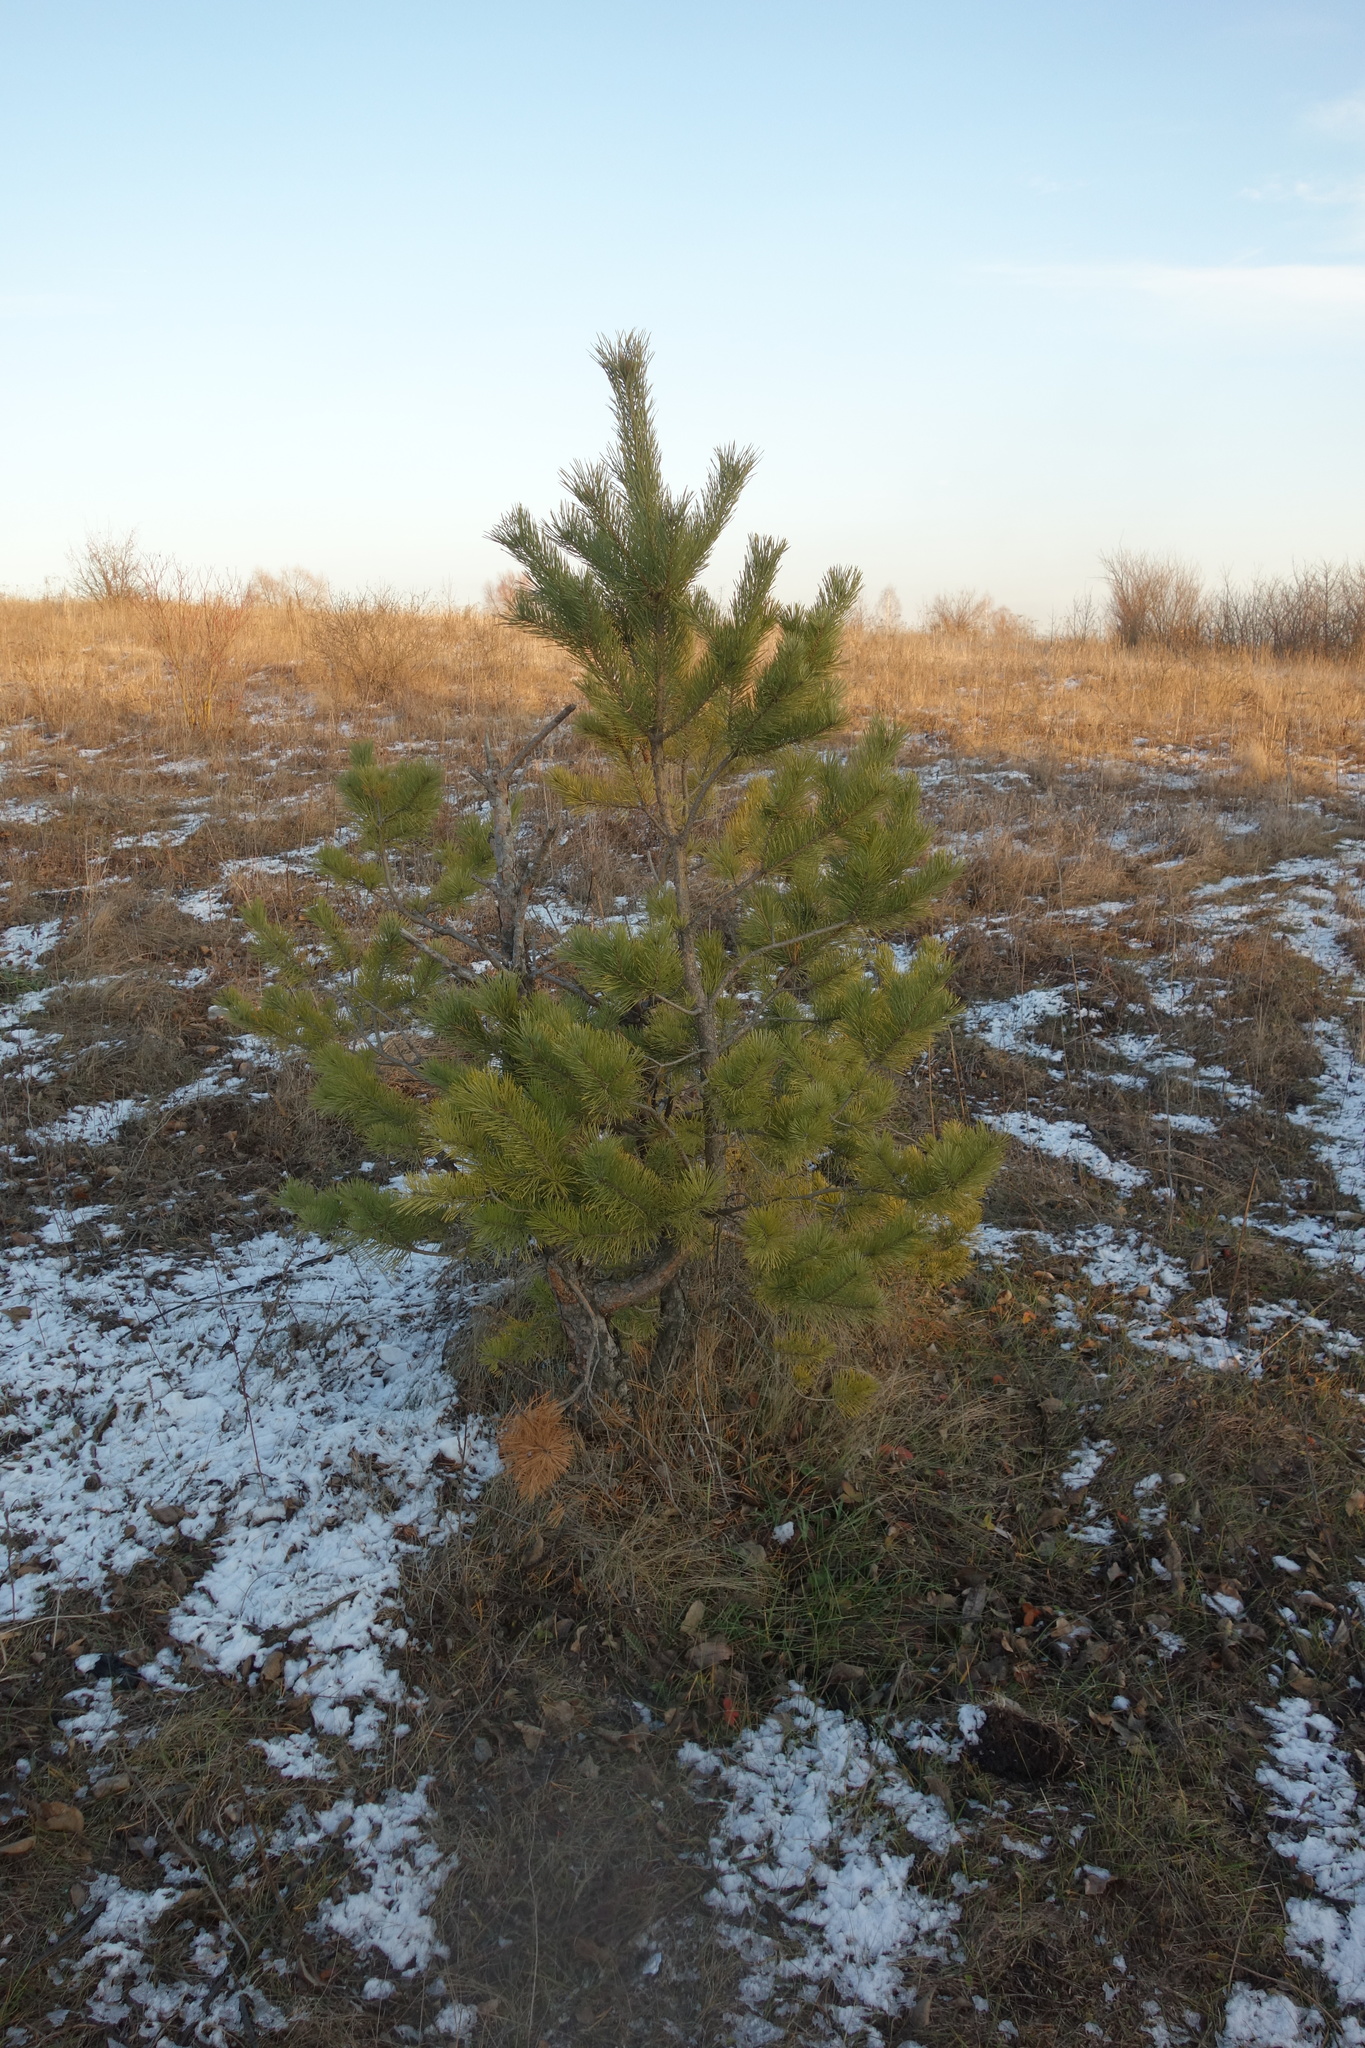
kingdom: Plantae
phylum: Tracheophyta
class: Pinopsida
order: Pinales
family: Pinaceae
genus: Pinus
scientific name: Pinus sylvestris
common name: Scots pine
